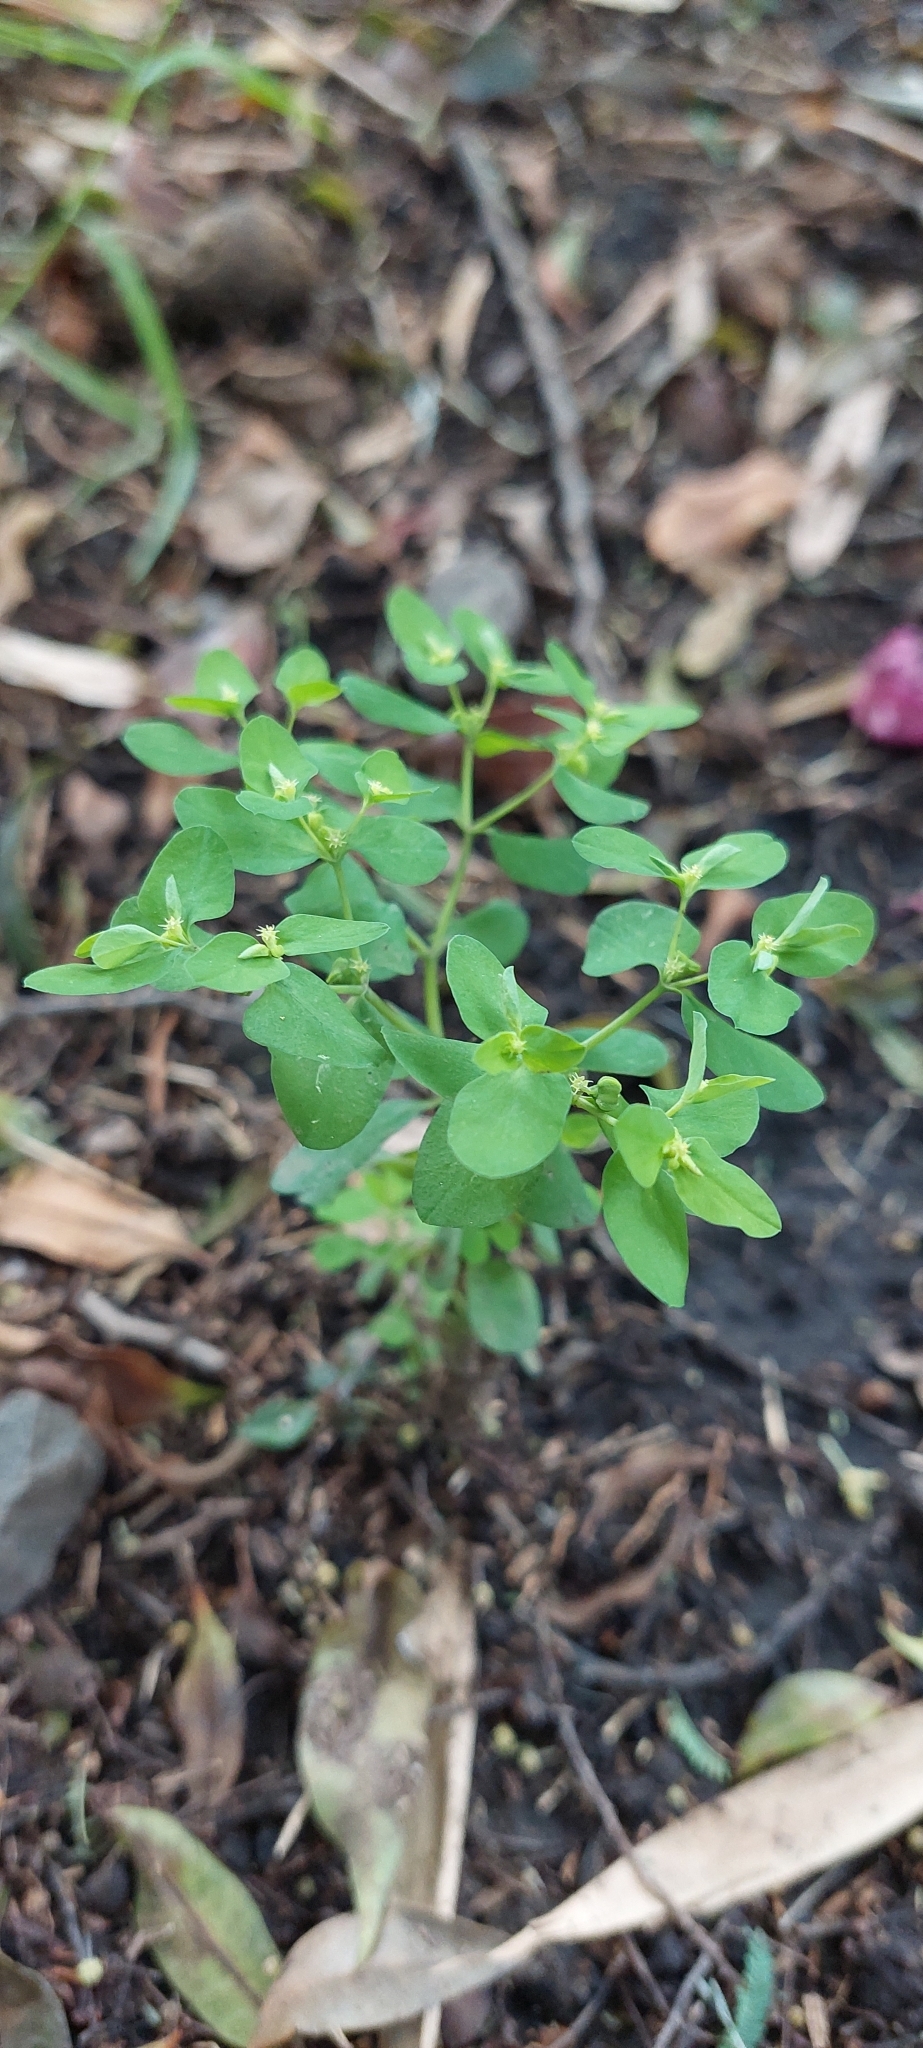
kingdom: Plantae
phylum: Tracheophyta
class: Magnoliopsida
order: Malpighiales
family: Euphorbiaceae
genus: Euphorbia
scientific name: Euphorbia peplus
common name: Petty spurge
